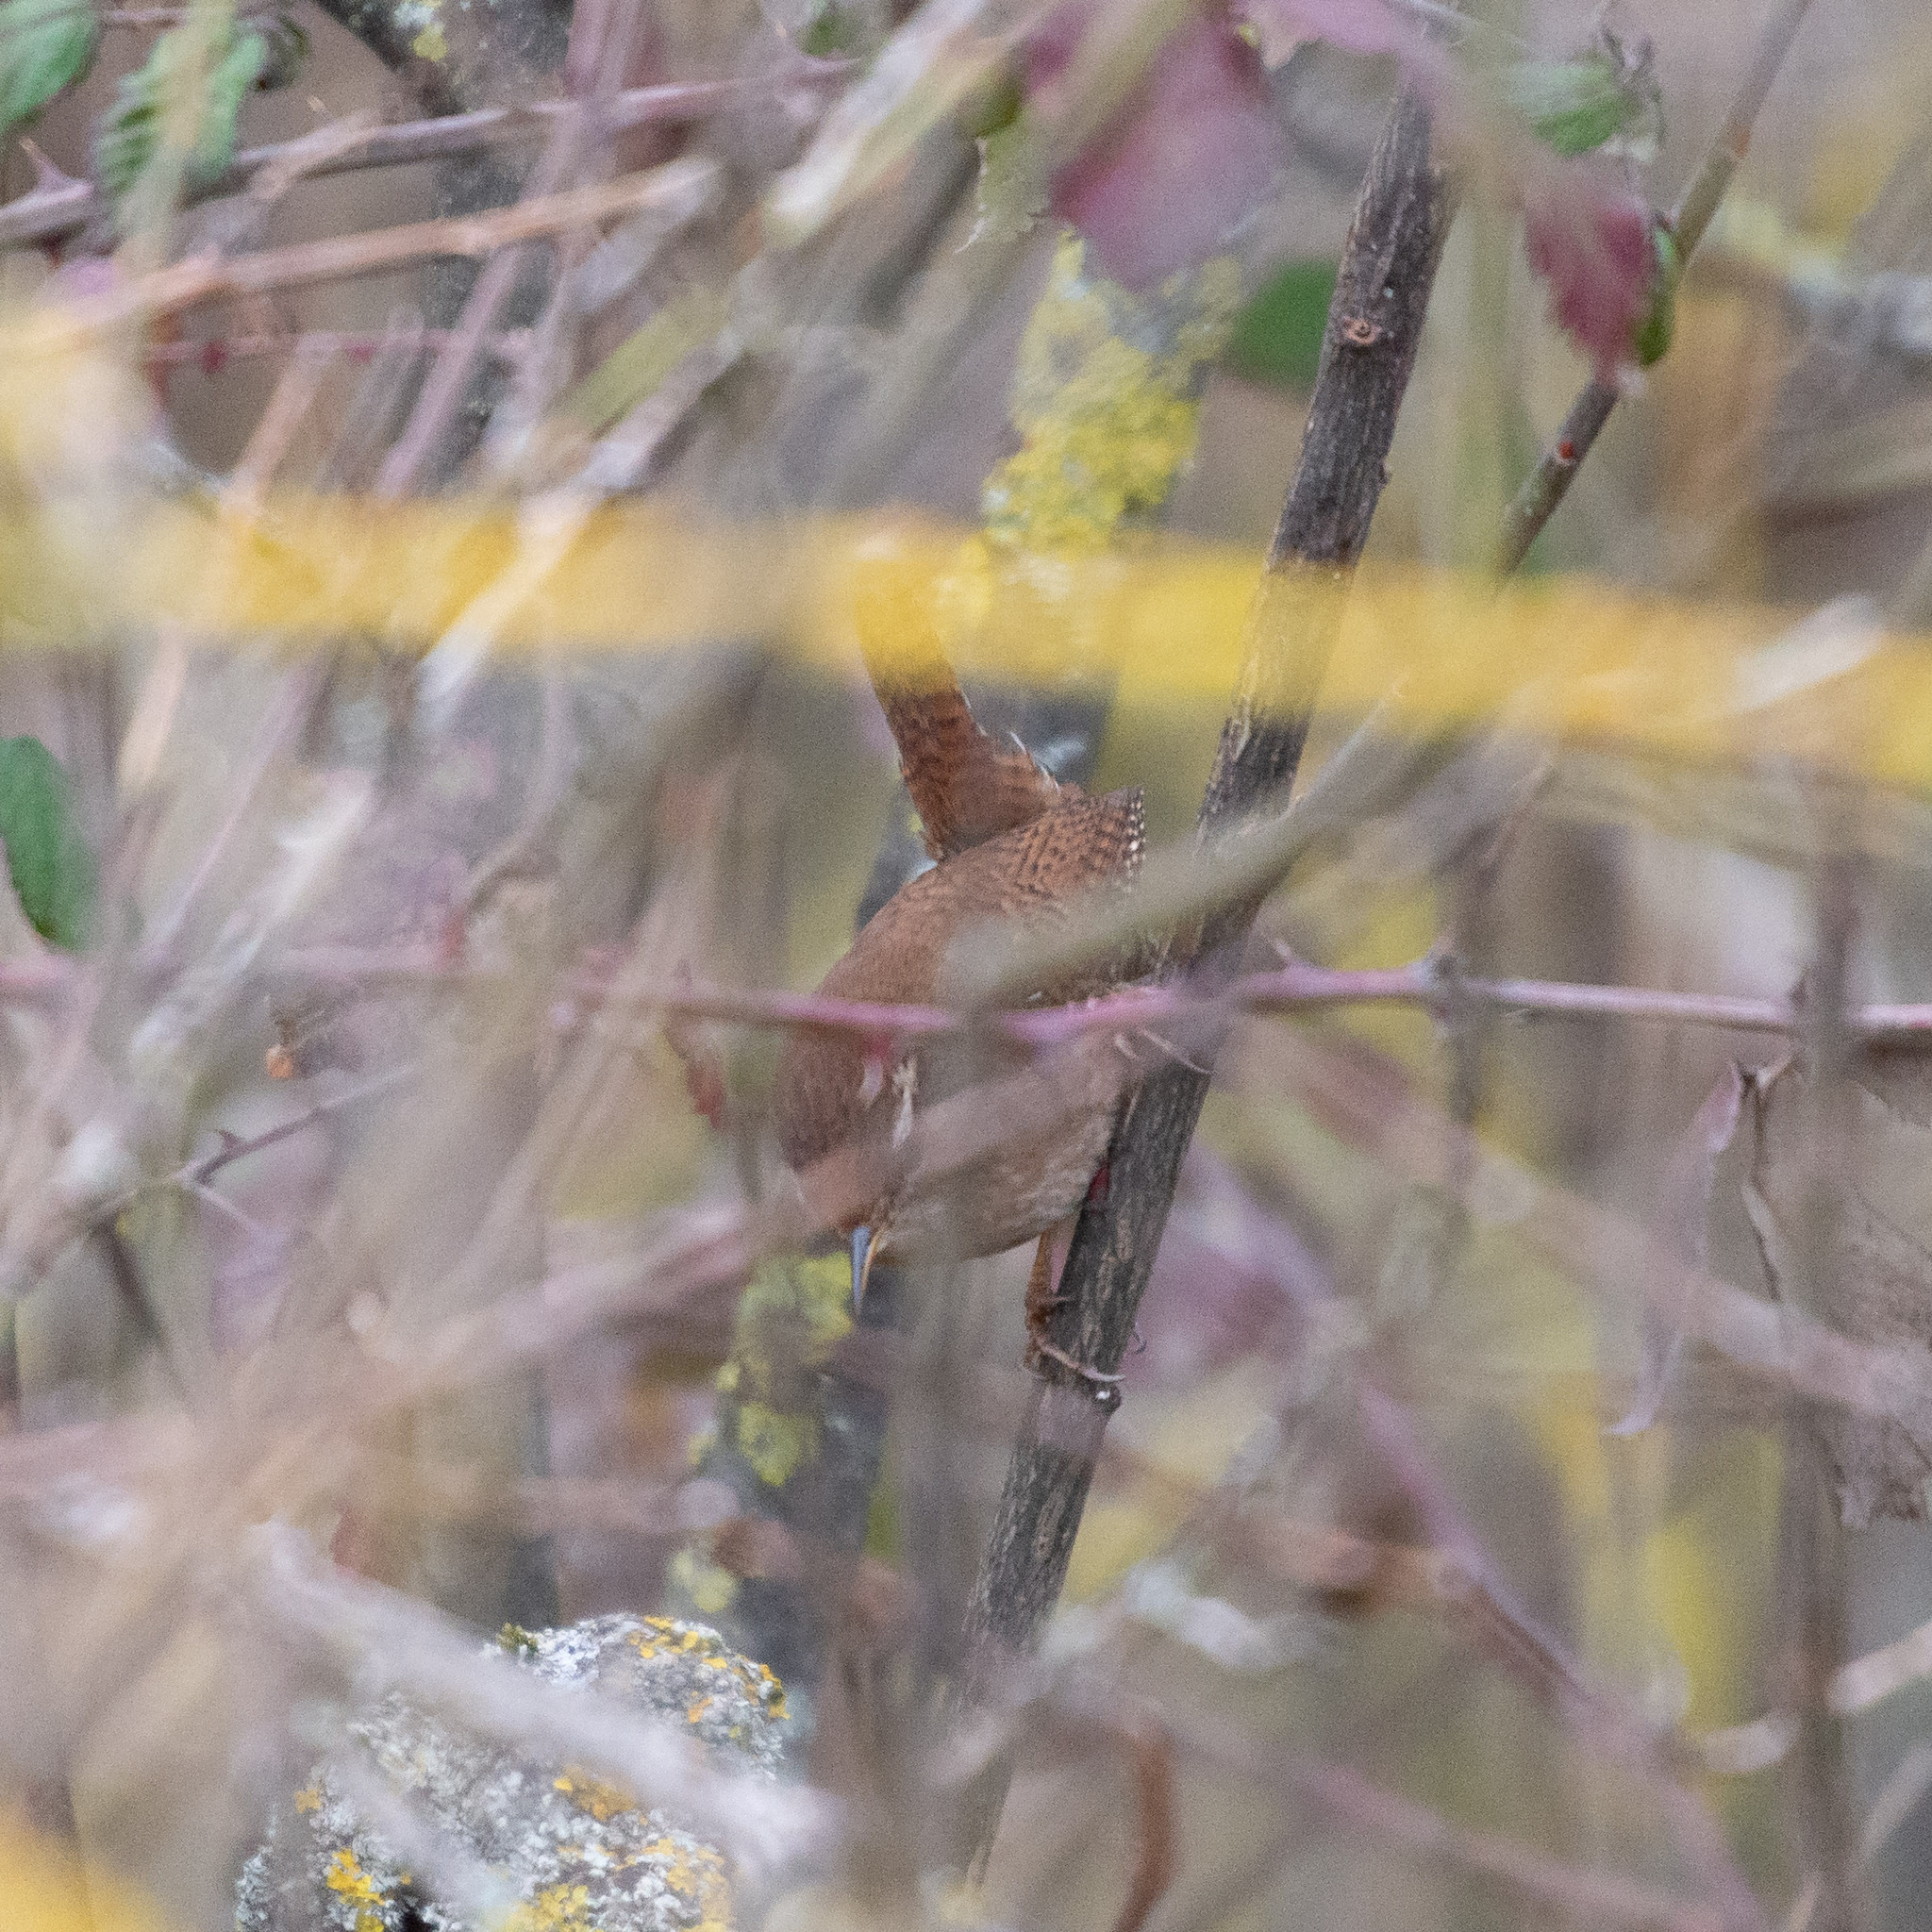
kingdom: Animalia
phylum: Chordata
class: Aves
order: Passeriformes
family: Troglodytidae
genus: Troglodytes
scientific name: Troglodytes troglodytes
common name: Eurasian wren
